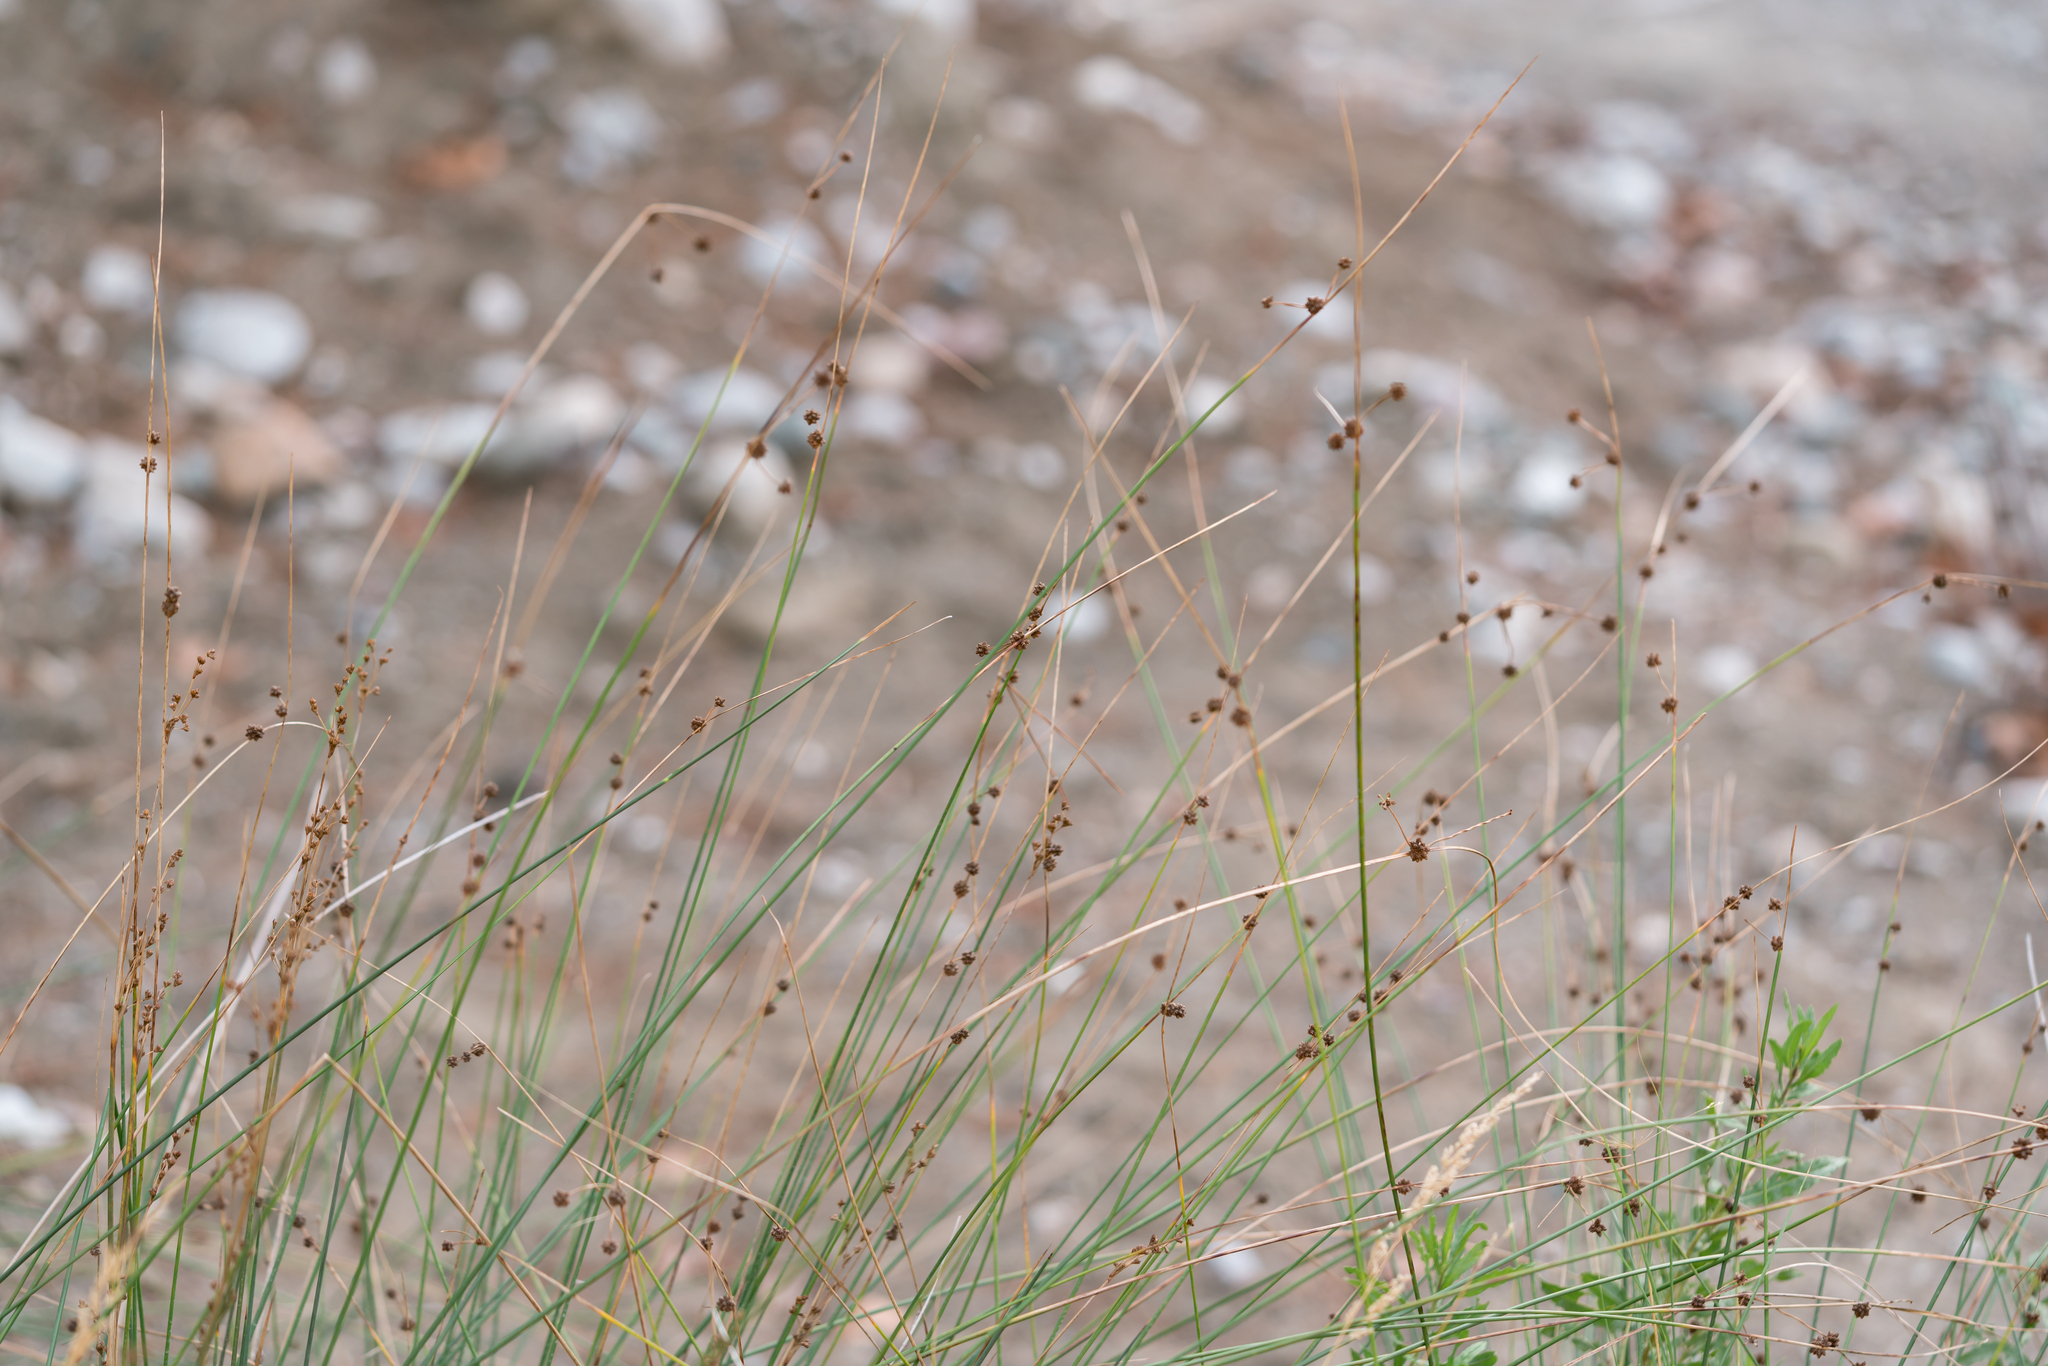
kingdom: Plantae
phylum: Tracheophyta
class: Liliopsida
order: Poales
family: Cyperaceae
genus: Scirpoides
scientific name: Scirpoides holoschoenus
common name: Round-headed club-rush
